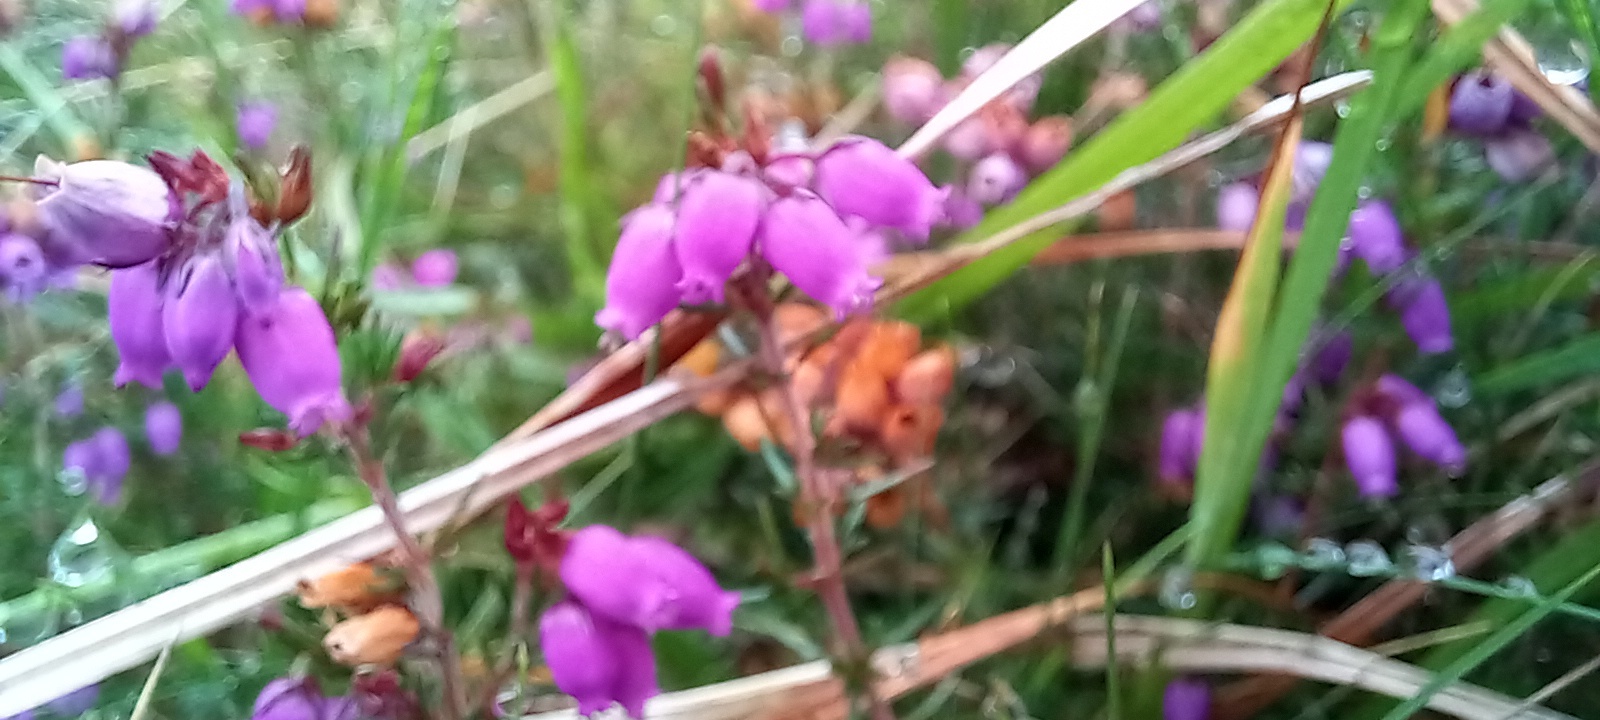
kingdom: Plantae
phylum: Tracheophyta
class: Magnoliopsida
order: Ericales
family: Ericaceae
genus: Erica
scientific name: Erica cinerea
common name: Bell heather
